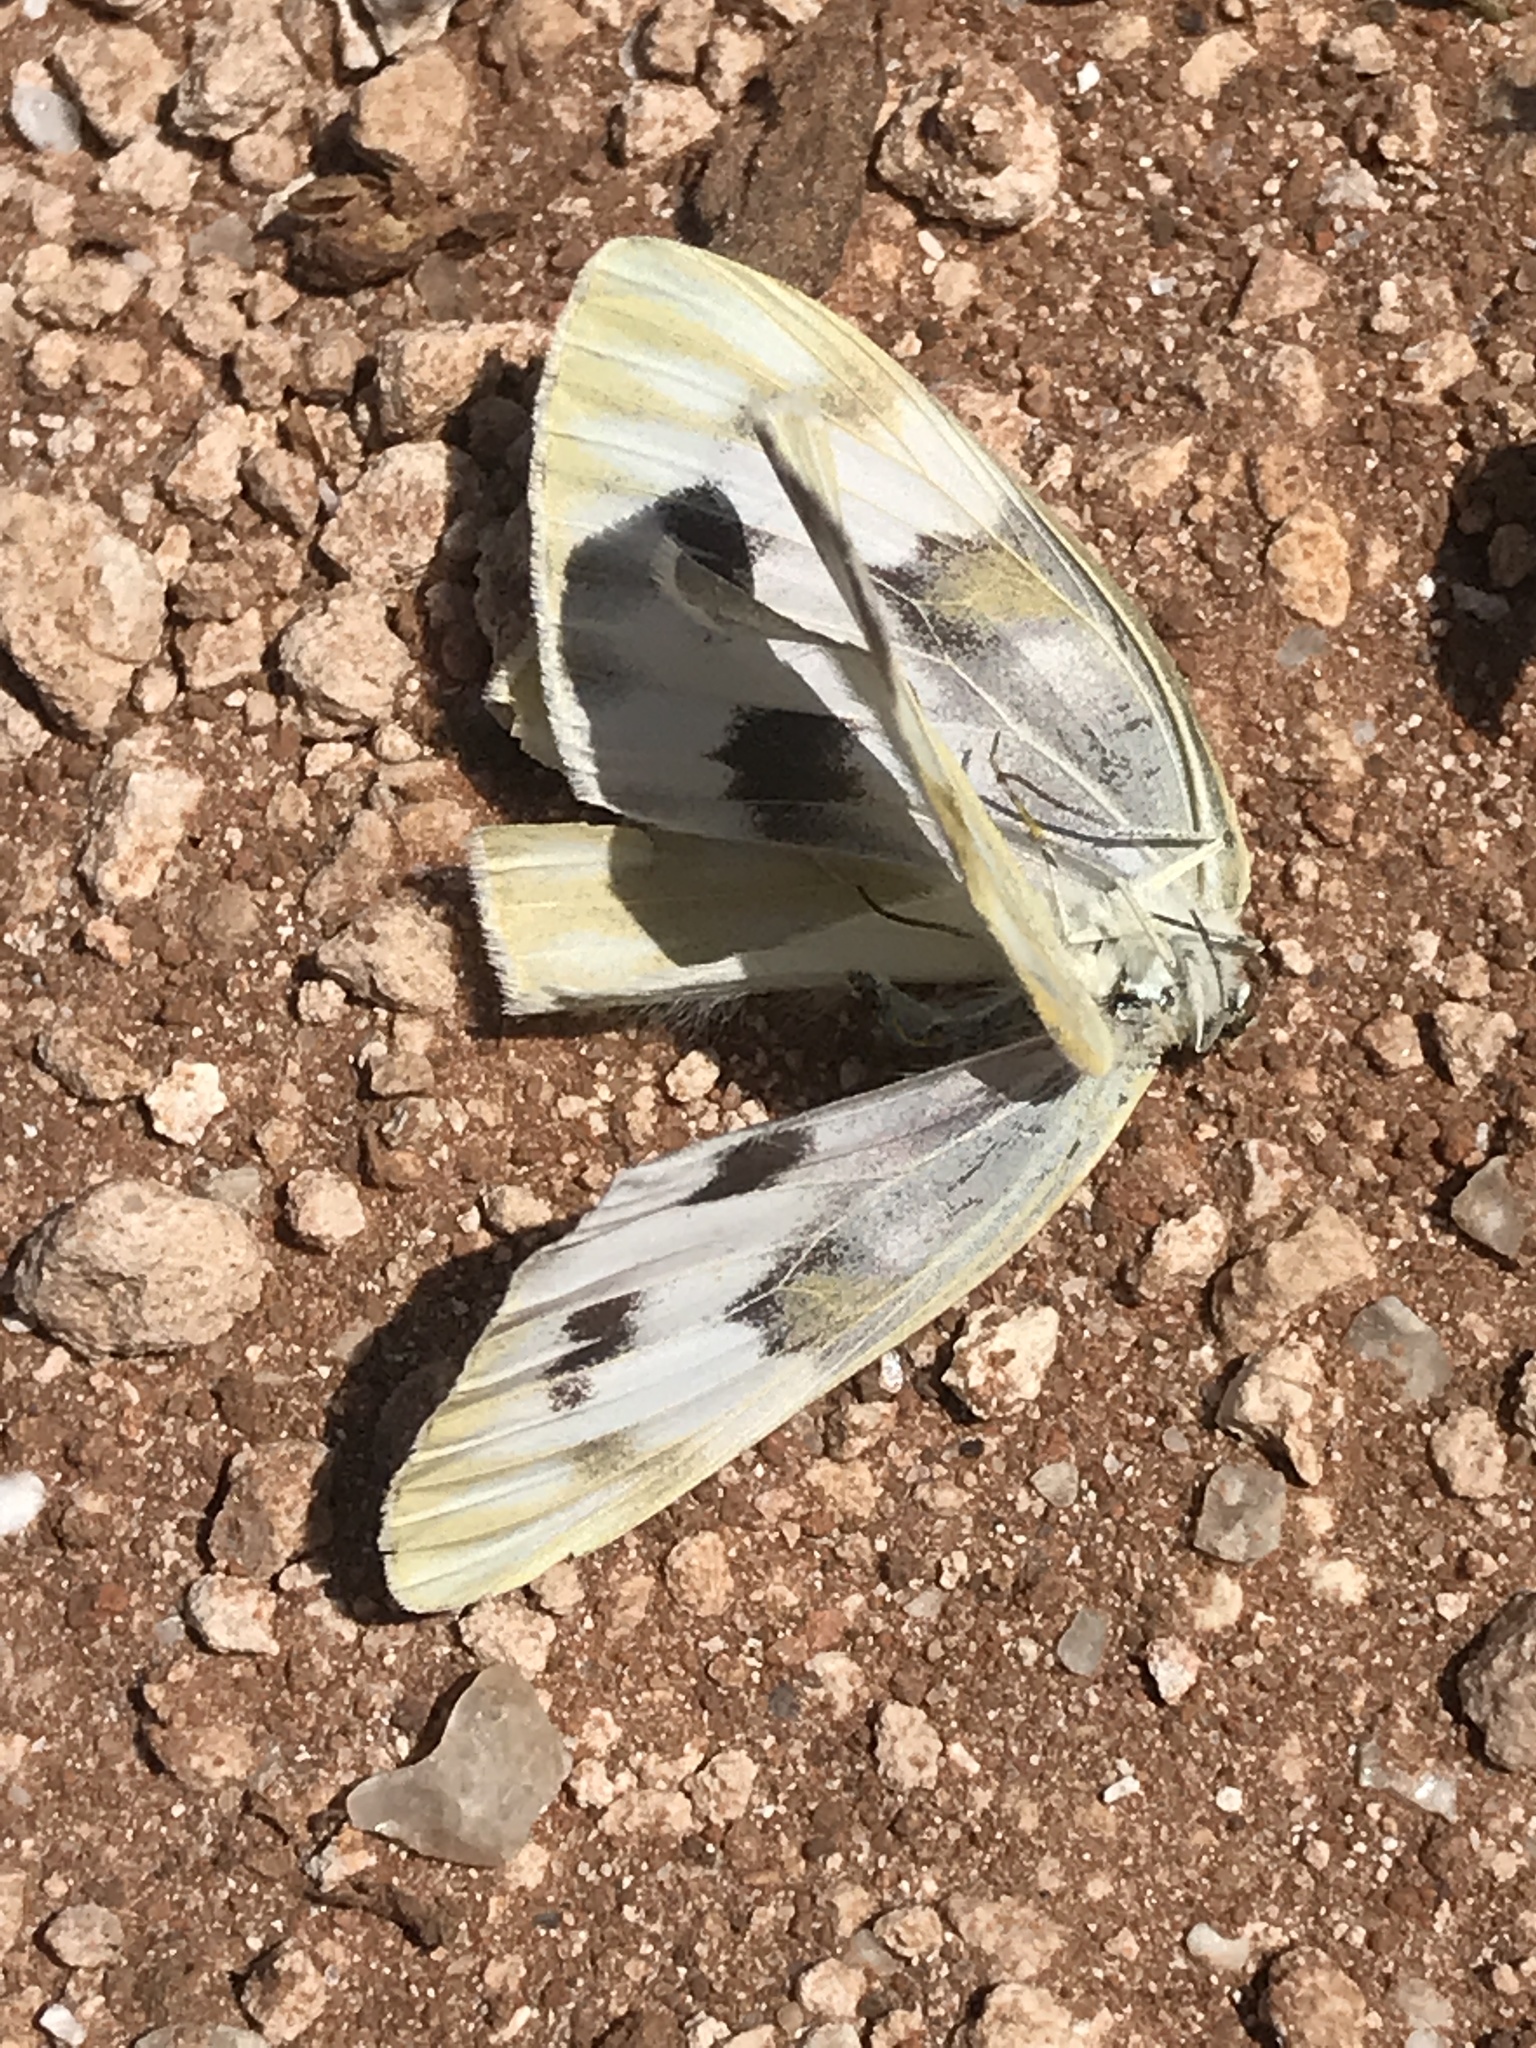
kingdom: Animalia
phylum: Arthropoda
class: Insecta
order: Lepidoptera
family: Pieridae
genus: Pontia
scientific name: Pontia protodice
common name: Checkered white
